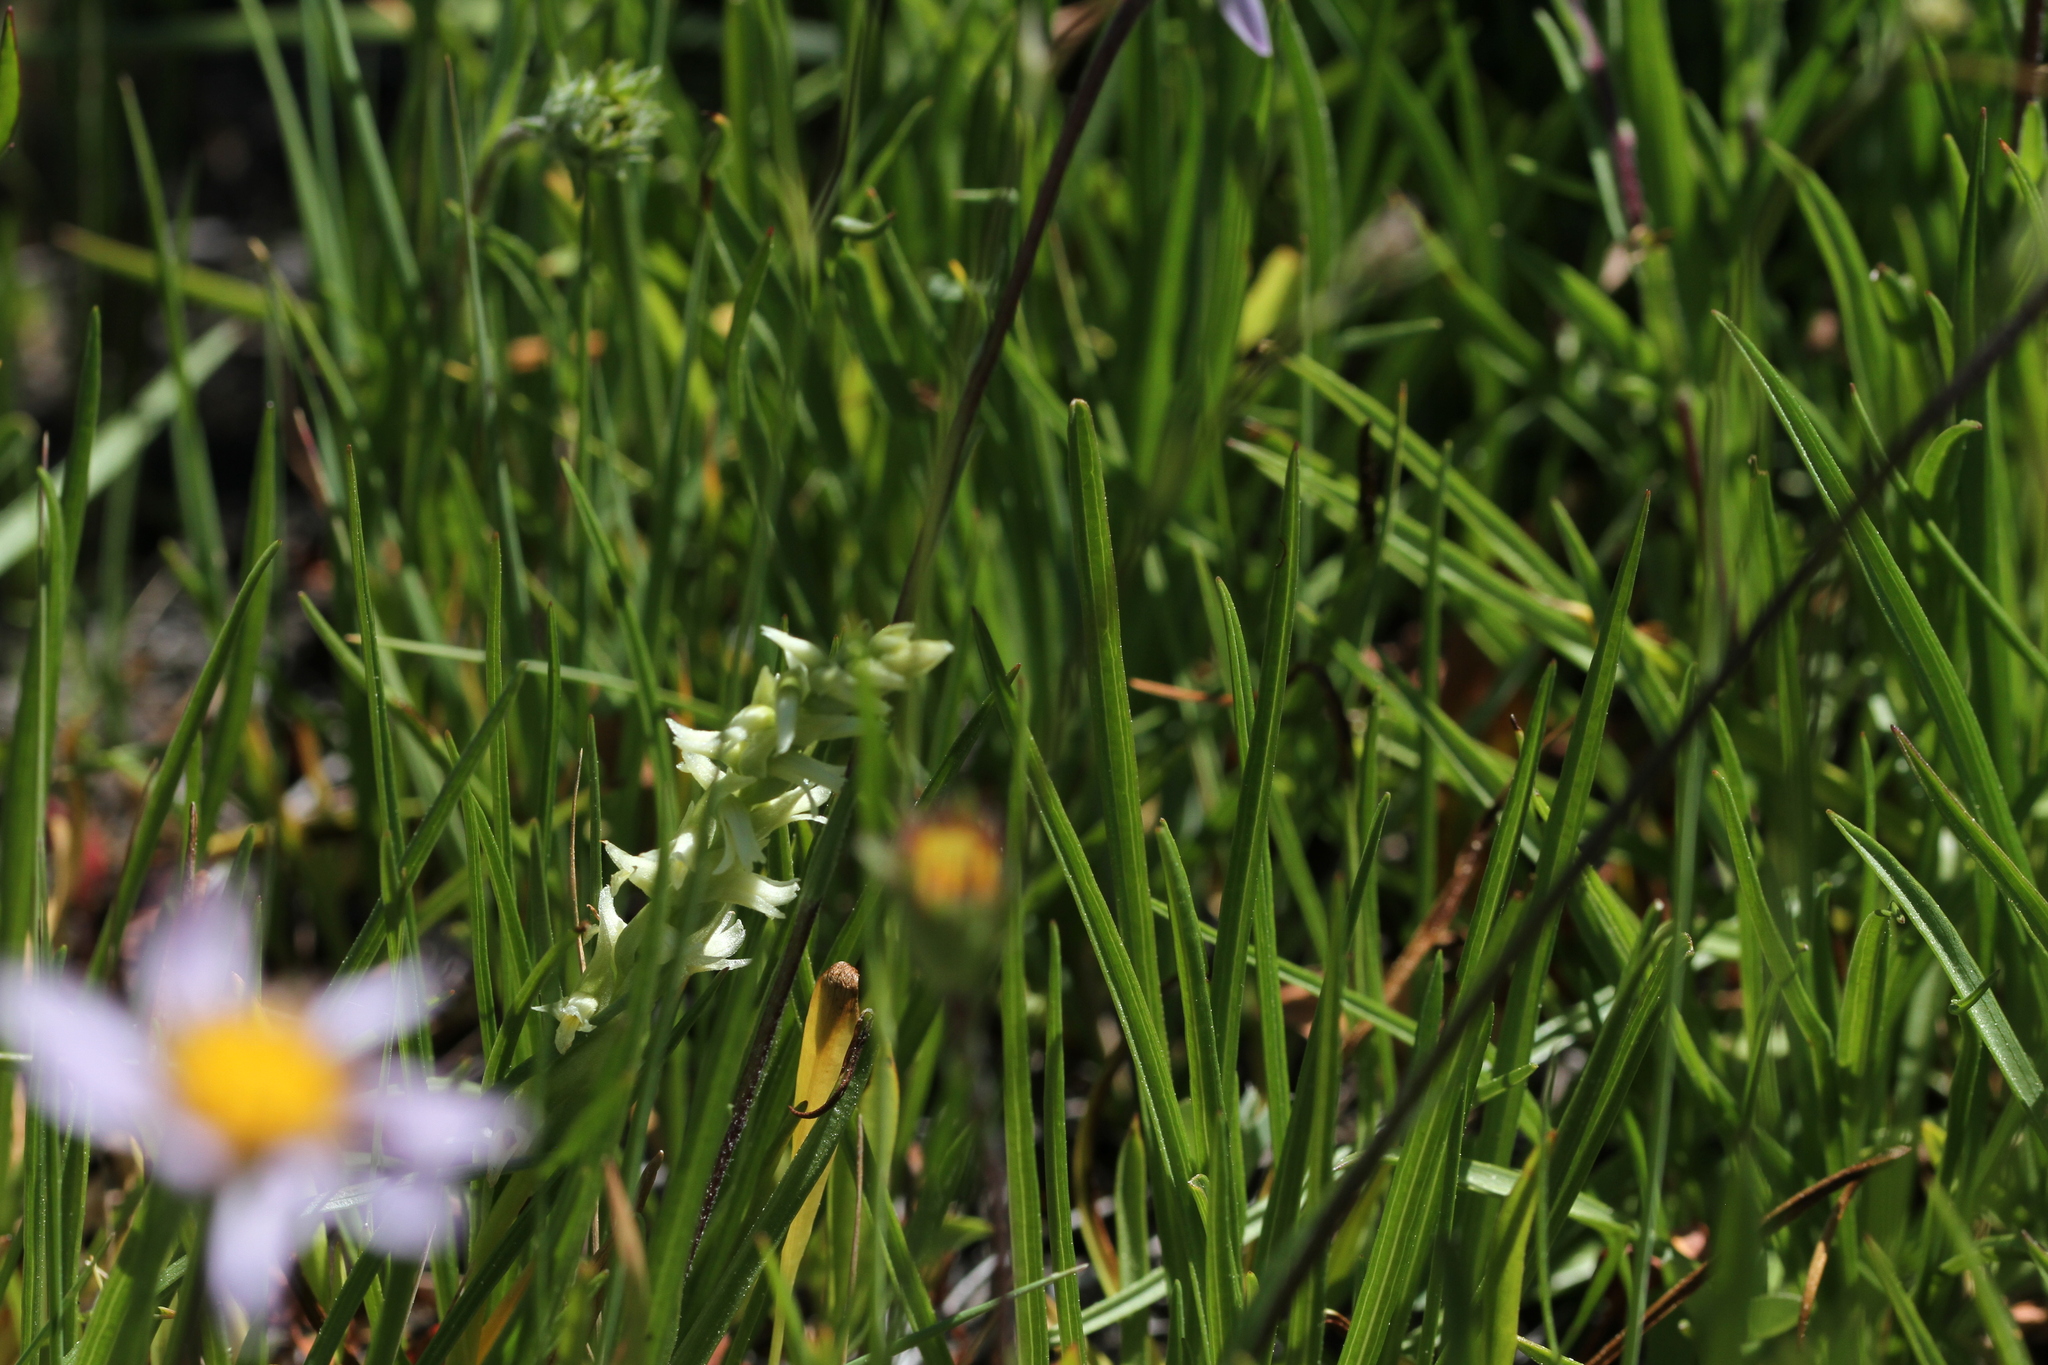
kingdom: Plantae
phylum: Tracheophyta
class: Liliopsida
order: Asparagales
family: Orchidaceae
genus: Spiranthes
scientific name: Spiranthes stellata
